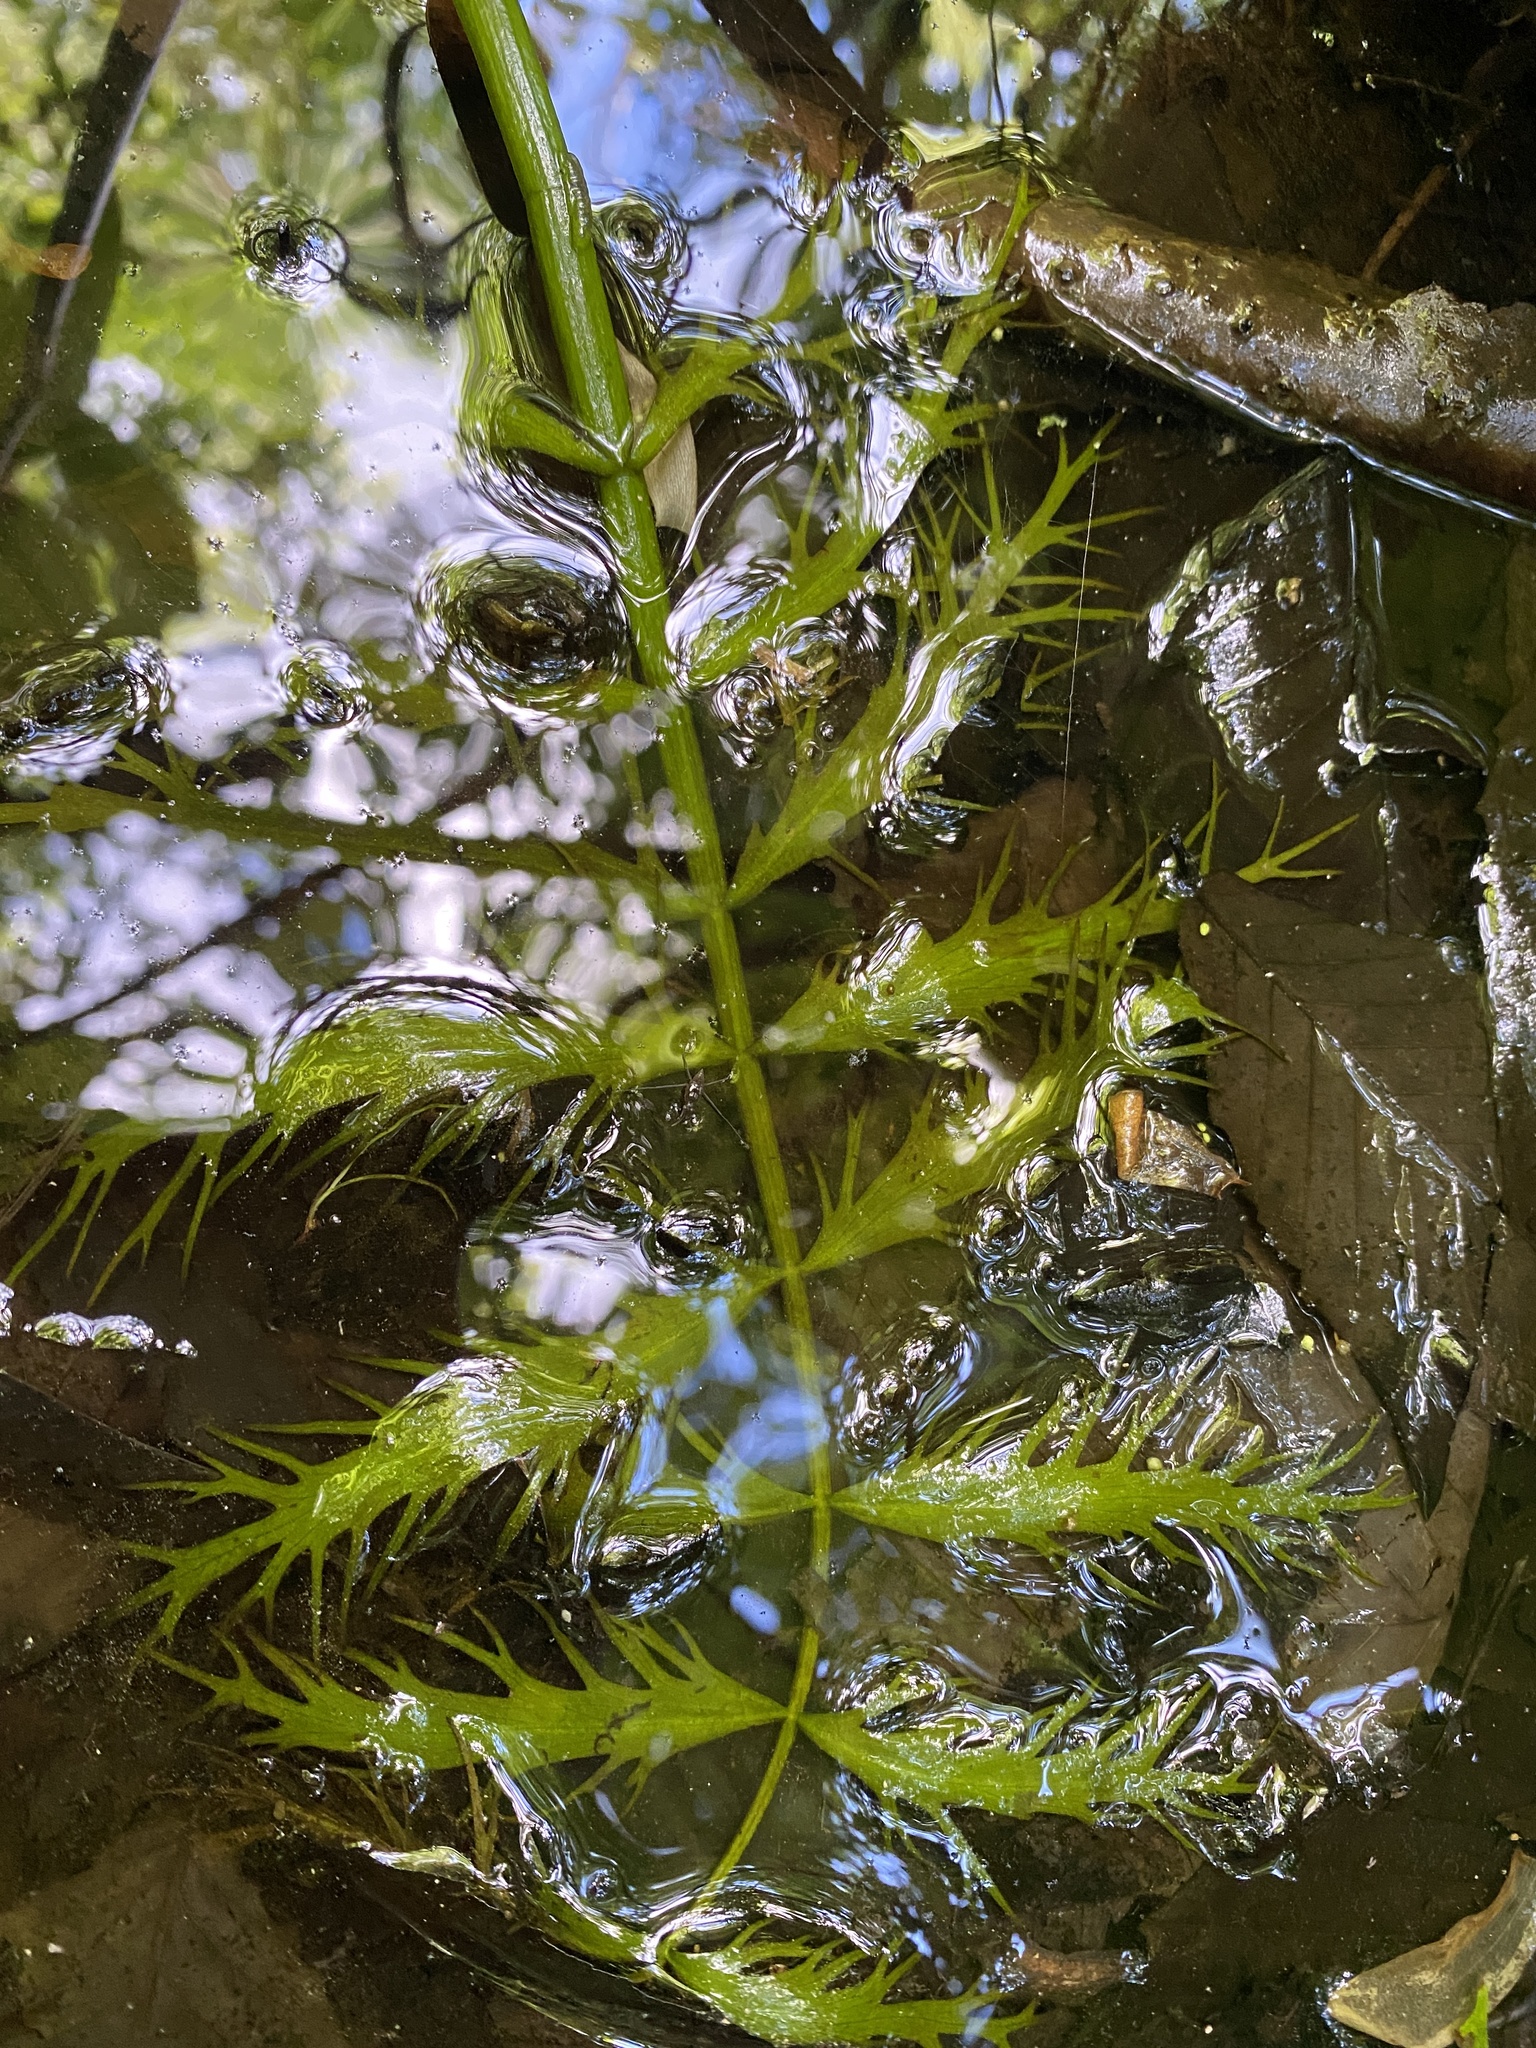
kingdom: Plantae
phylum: Tracheophyta
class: Magnoliopsida
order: Apiales
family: Apiaceae
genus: Sium
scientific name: Sium suave
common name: Hemlock water-parsnip
